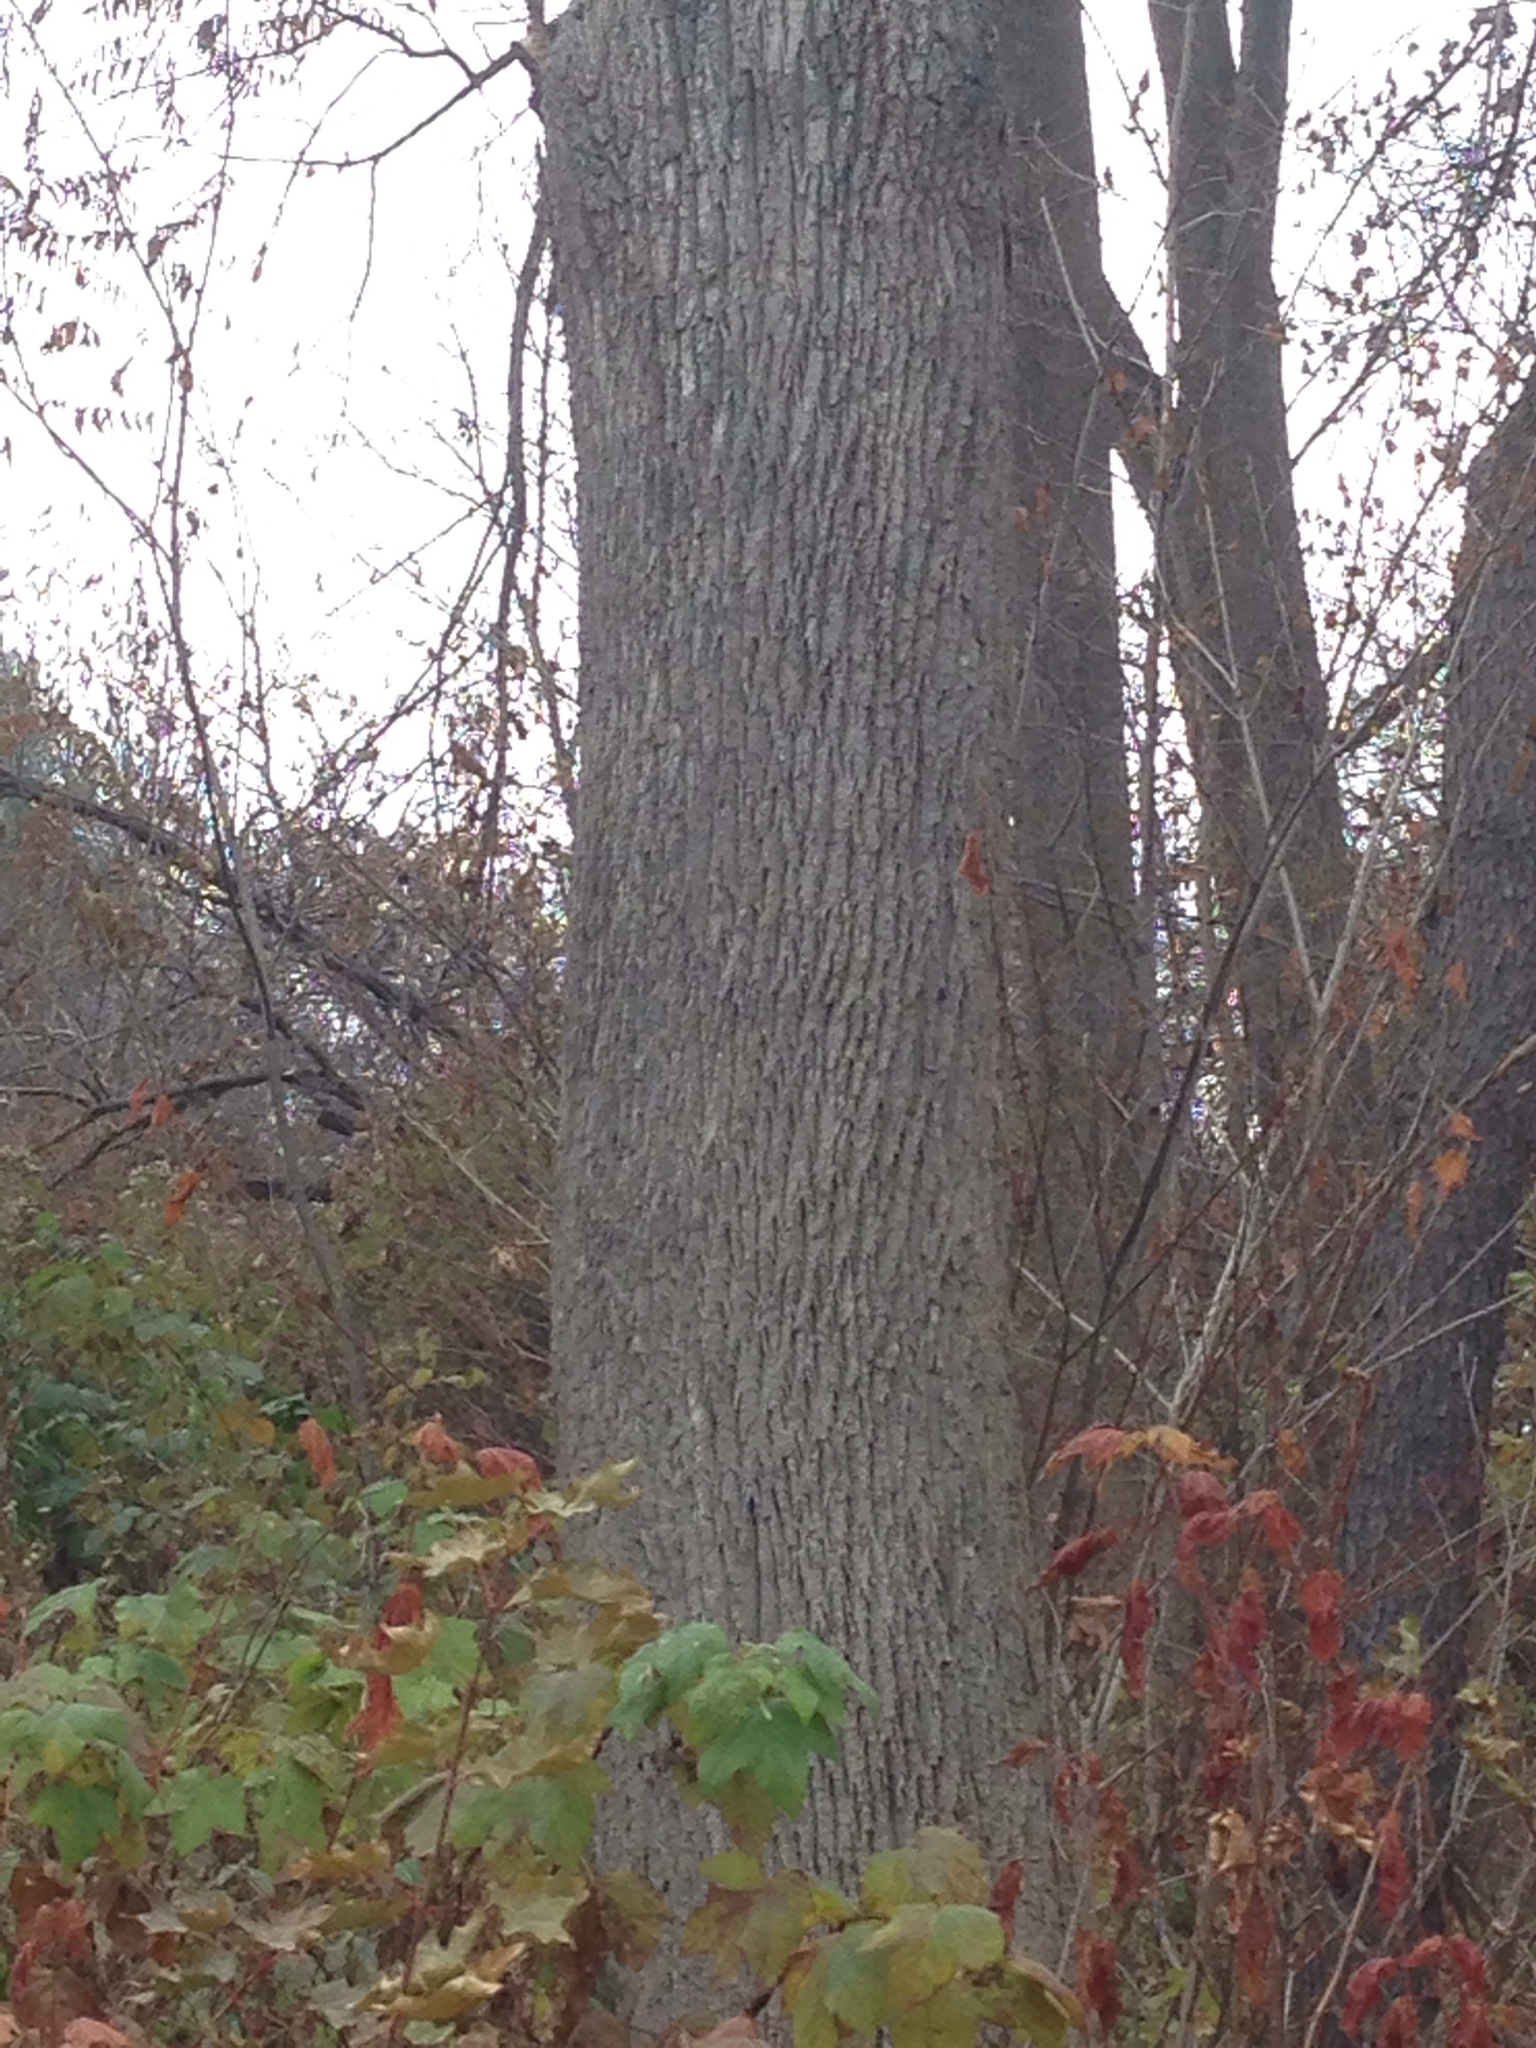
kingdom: Plantae
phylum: Tracheophyta
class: Magnoliopsida
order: Lamiales
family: Oleaceae
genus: Fraxinus
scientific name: Fraxinus americana
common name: White ash
